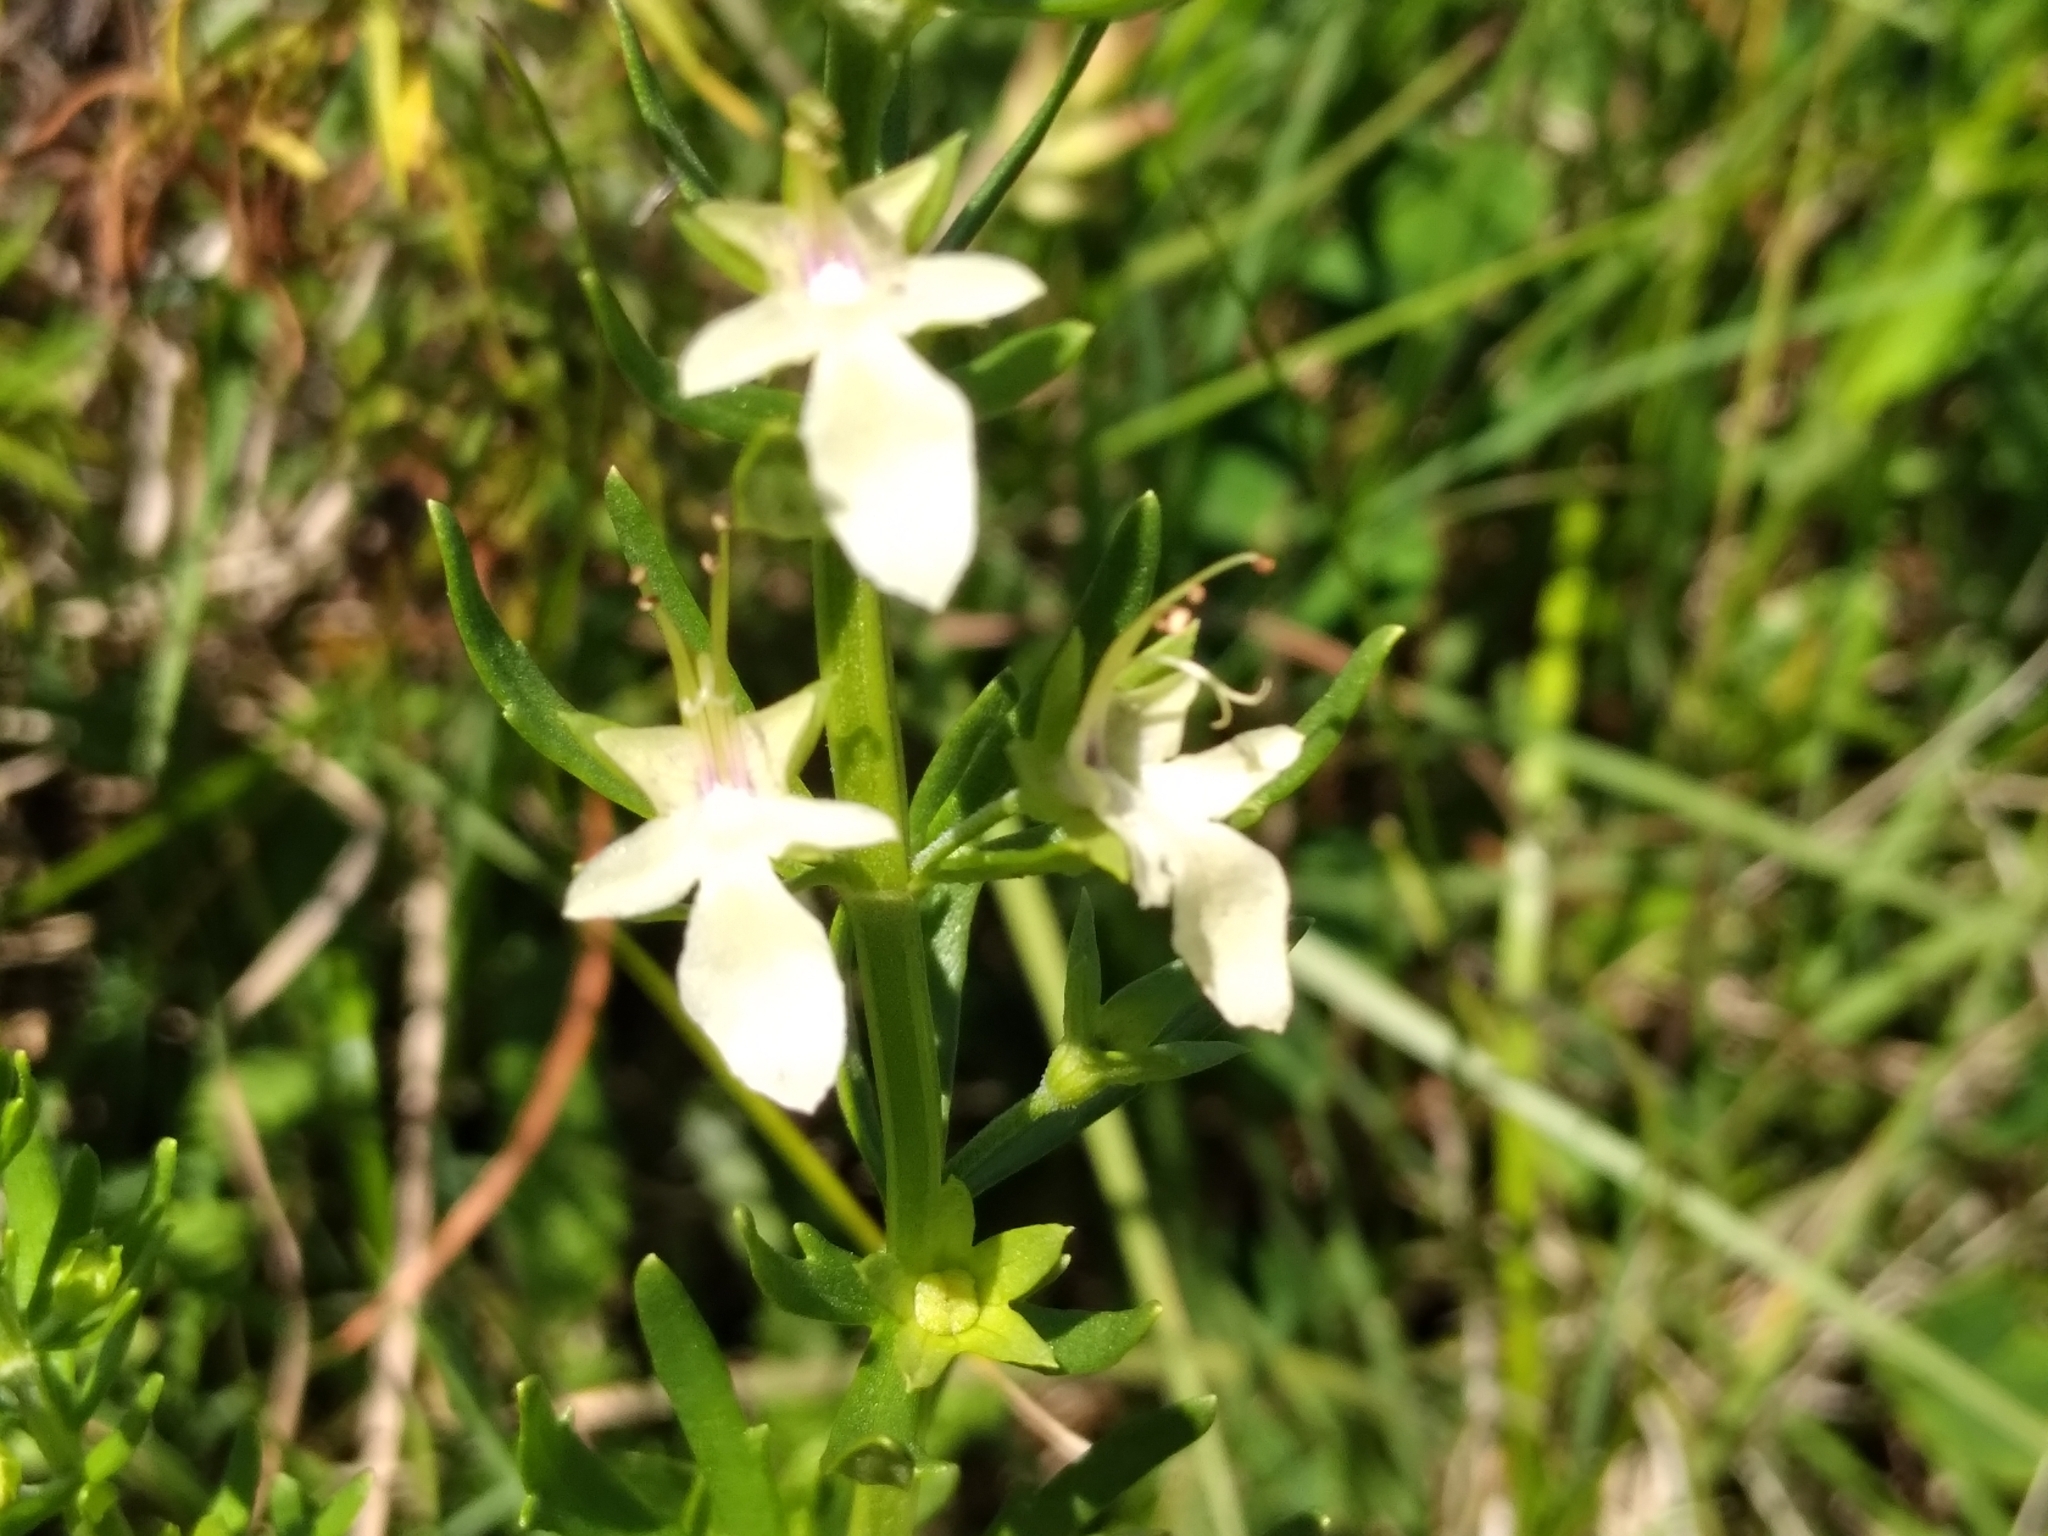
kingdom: Plantae
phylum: Tracheophyta
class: Magnoliopsida
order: Lamiales
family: Lamiaceae
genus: Teucrium
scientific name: Teucrium cubense
